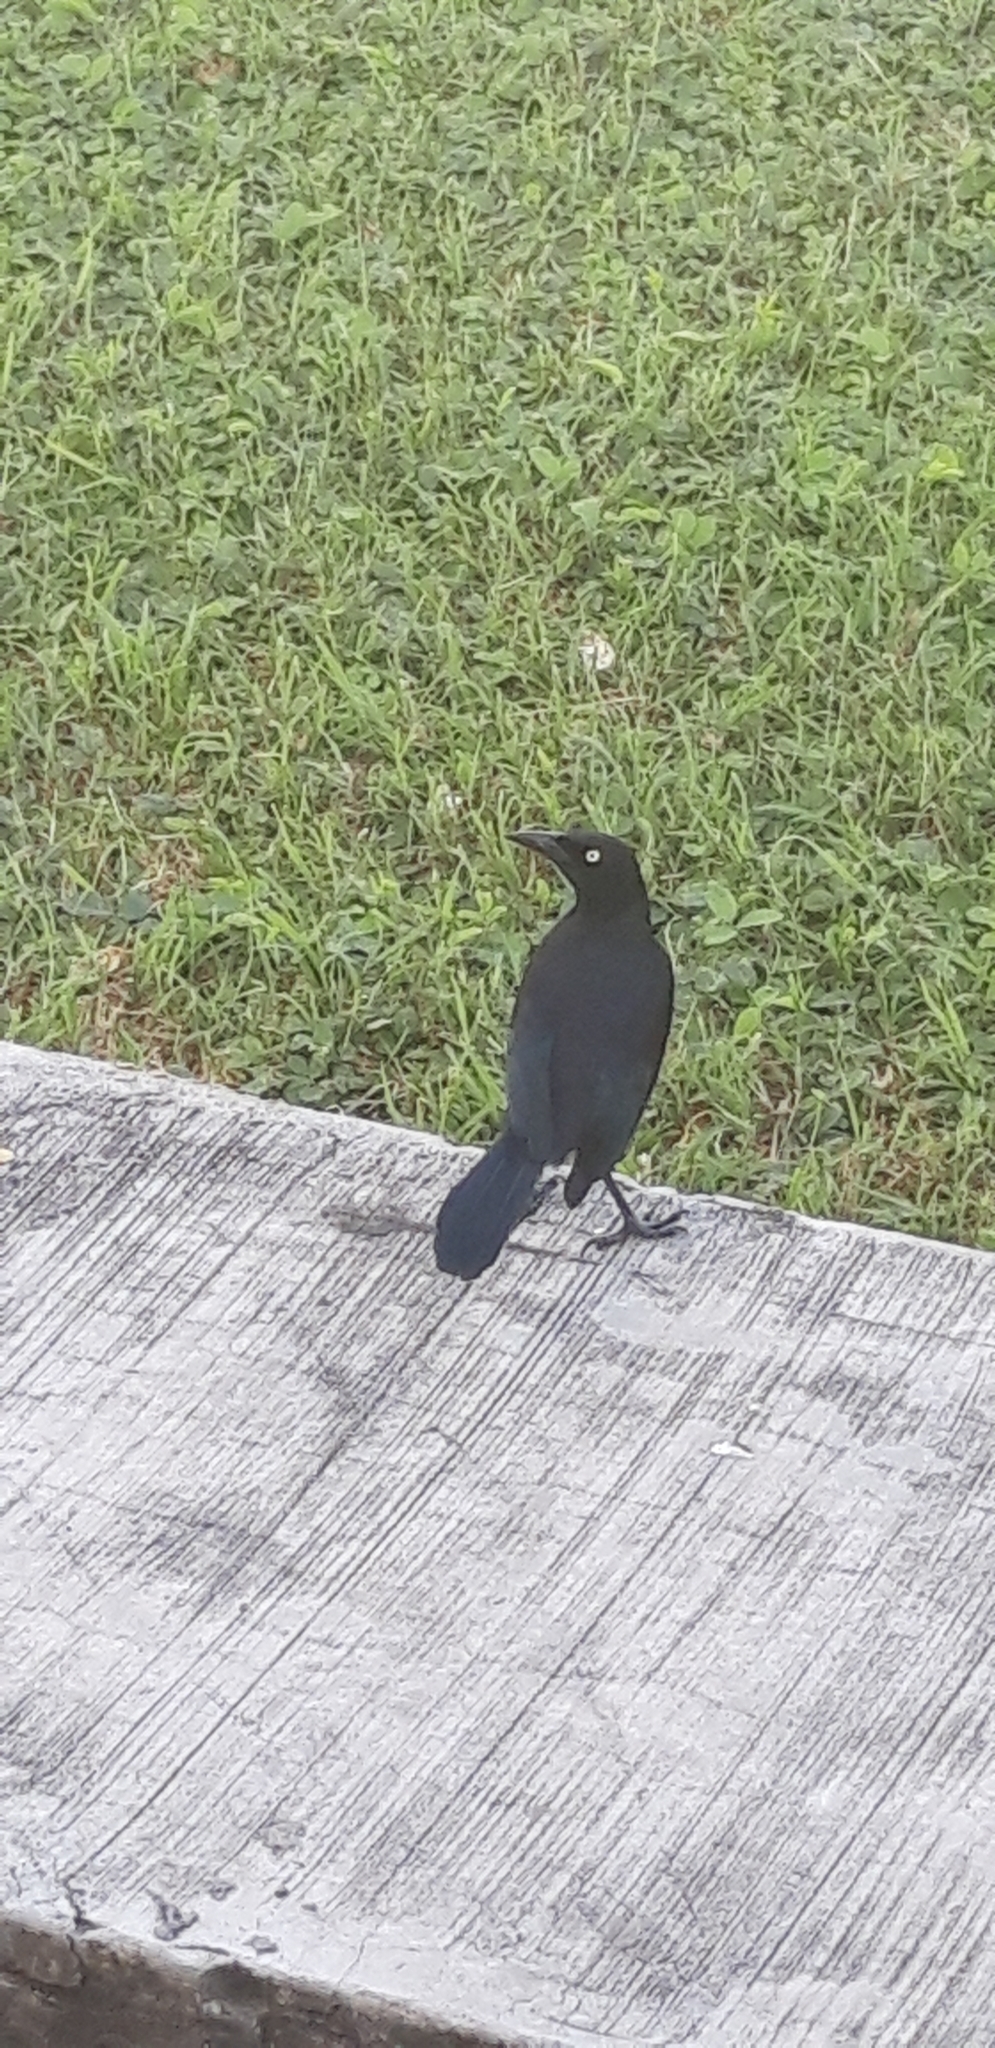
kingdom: Animalia
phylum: Chordata
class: Aves
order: Passeriformes
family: Icteridae
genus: Quiscalus
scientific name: Quiscalus lugubris
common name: Carib grackle
